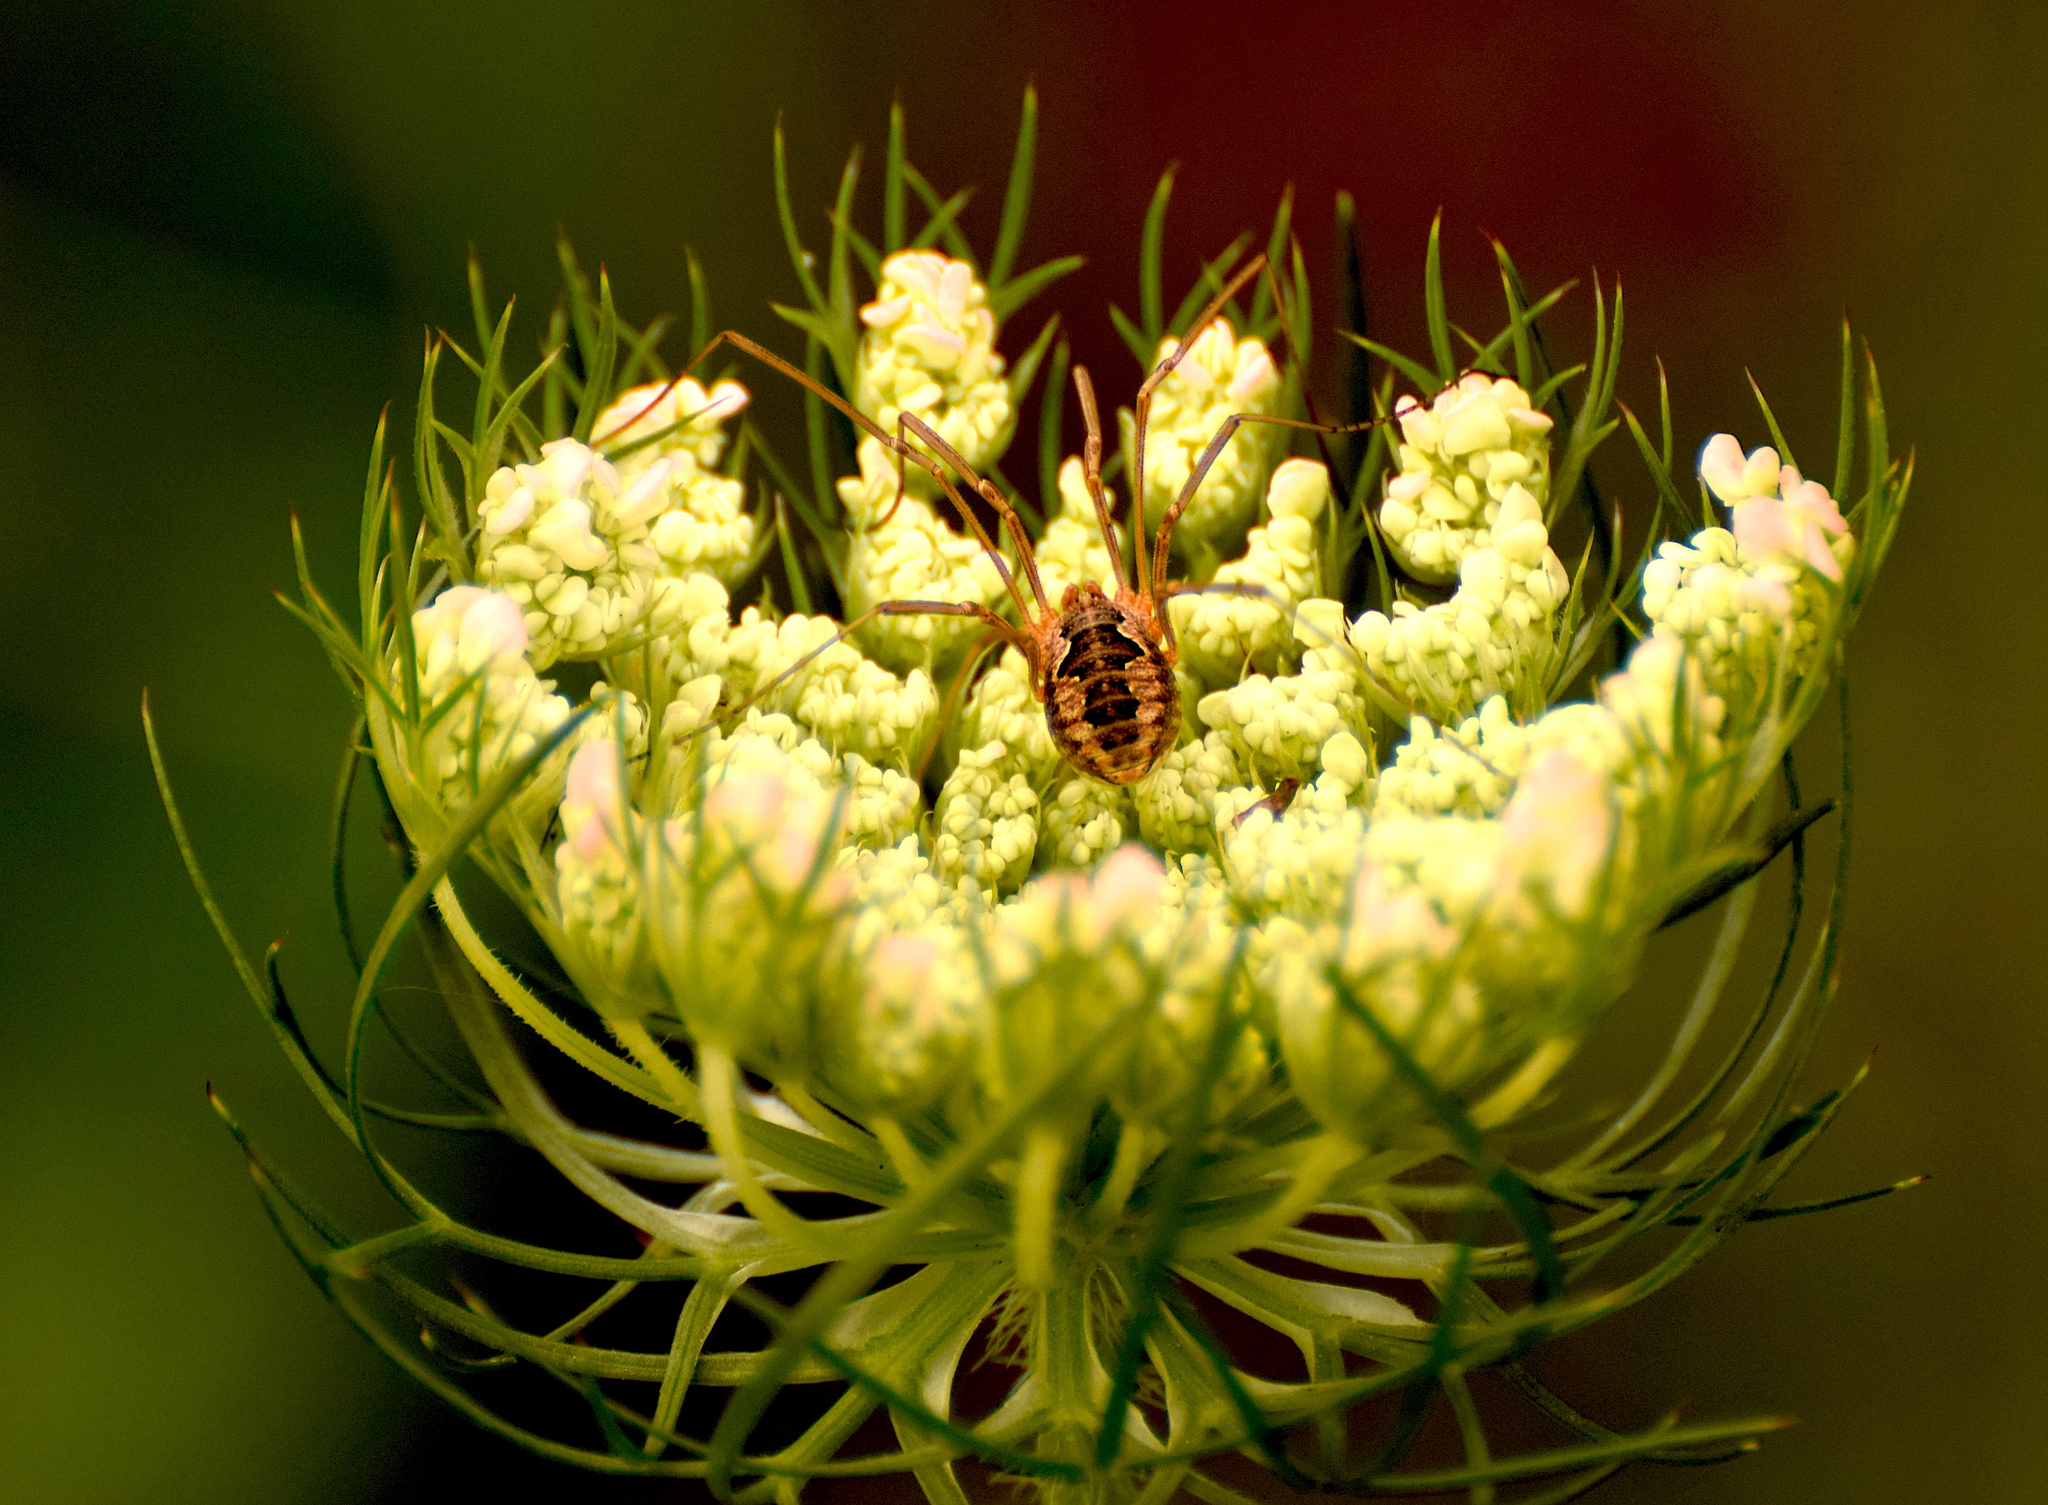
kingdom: Animalia
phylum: Arthropoda
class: Arachnida
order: Opiliones
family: Phalangiidae
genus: Phalangium
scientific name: Phalangium opilio
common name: Daddy longleg
